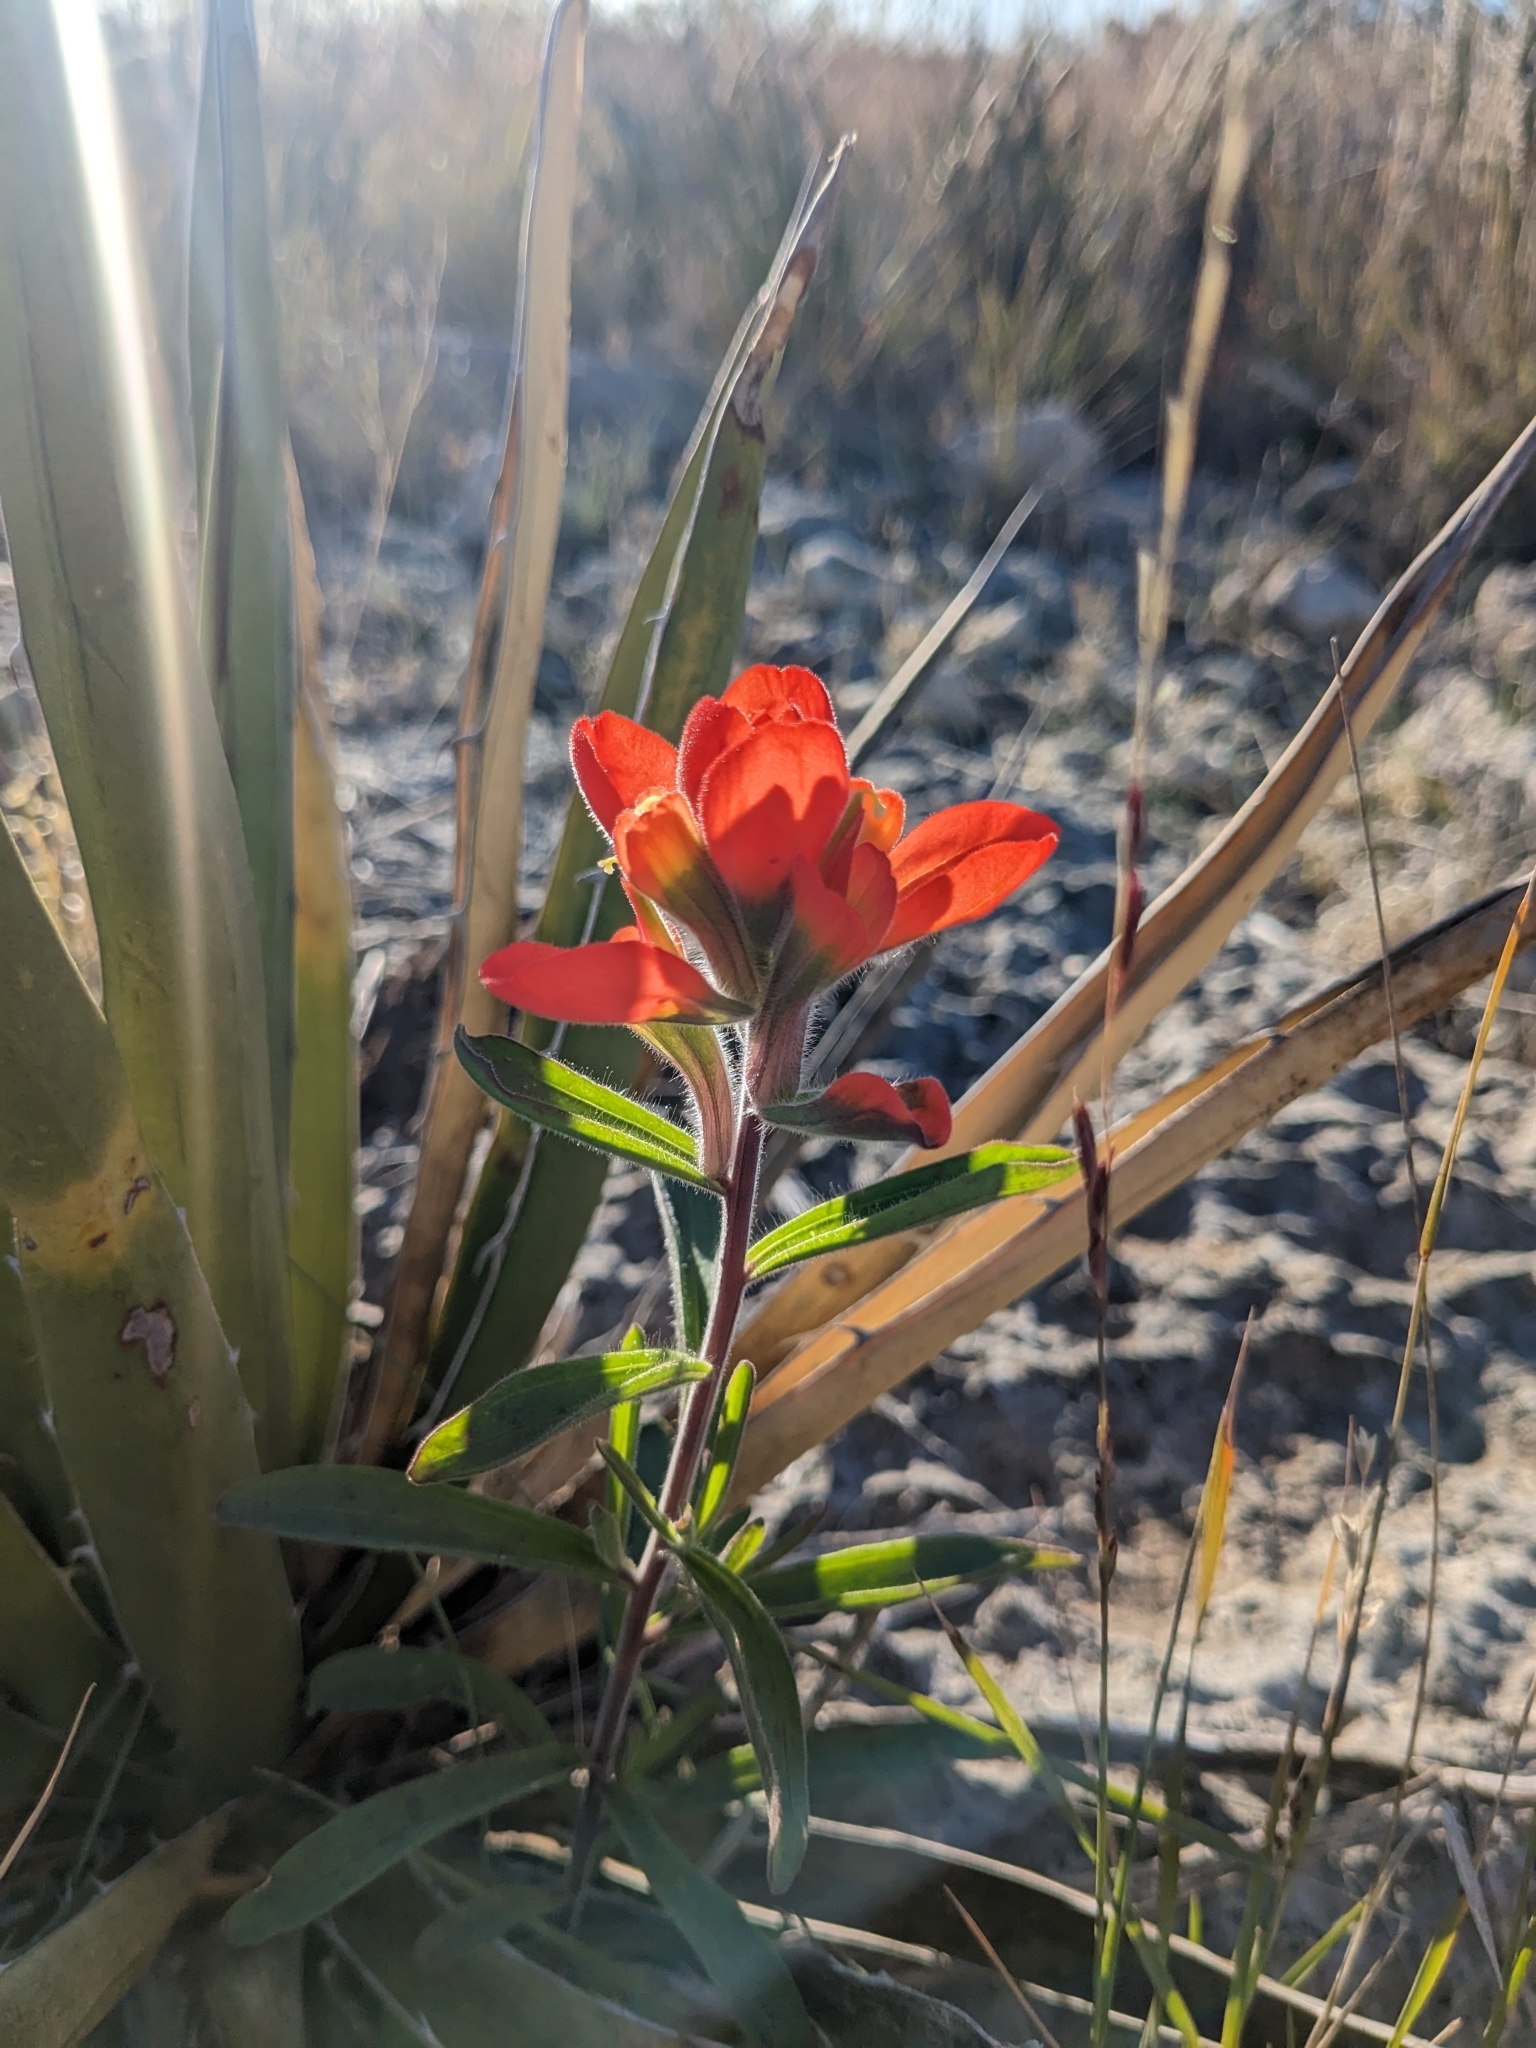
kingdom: Plantae
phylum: Tracheophyta
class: Magnoliopsida
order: Lamiales
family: Orobanchaceae
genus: Castilleja
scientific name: Castilleja rigida
